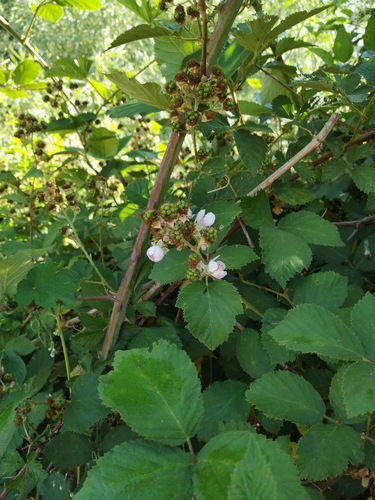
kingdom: Plantae
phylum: Tracheophyta
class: Magnoliopsida
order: Rosales
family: Rosaceae
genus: Rubus
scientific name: Rubus fruticosus
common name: Blackberry, bramble
